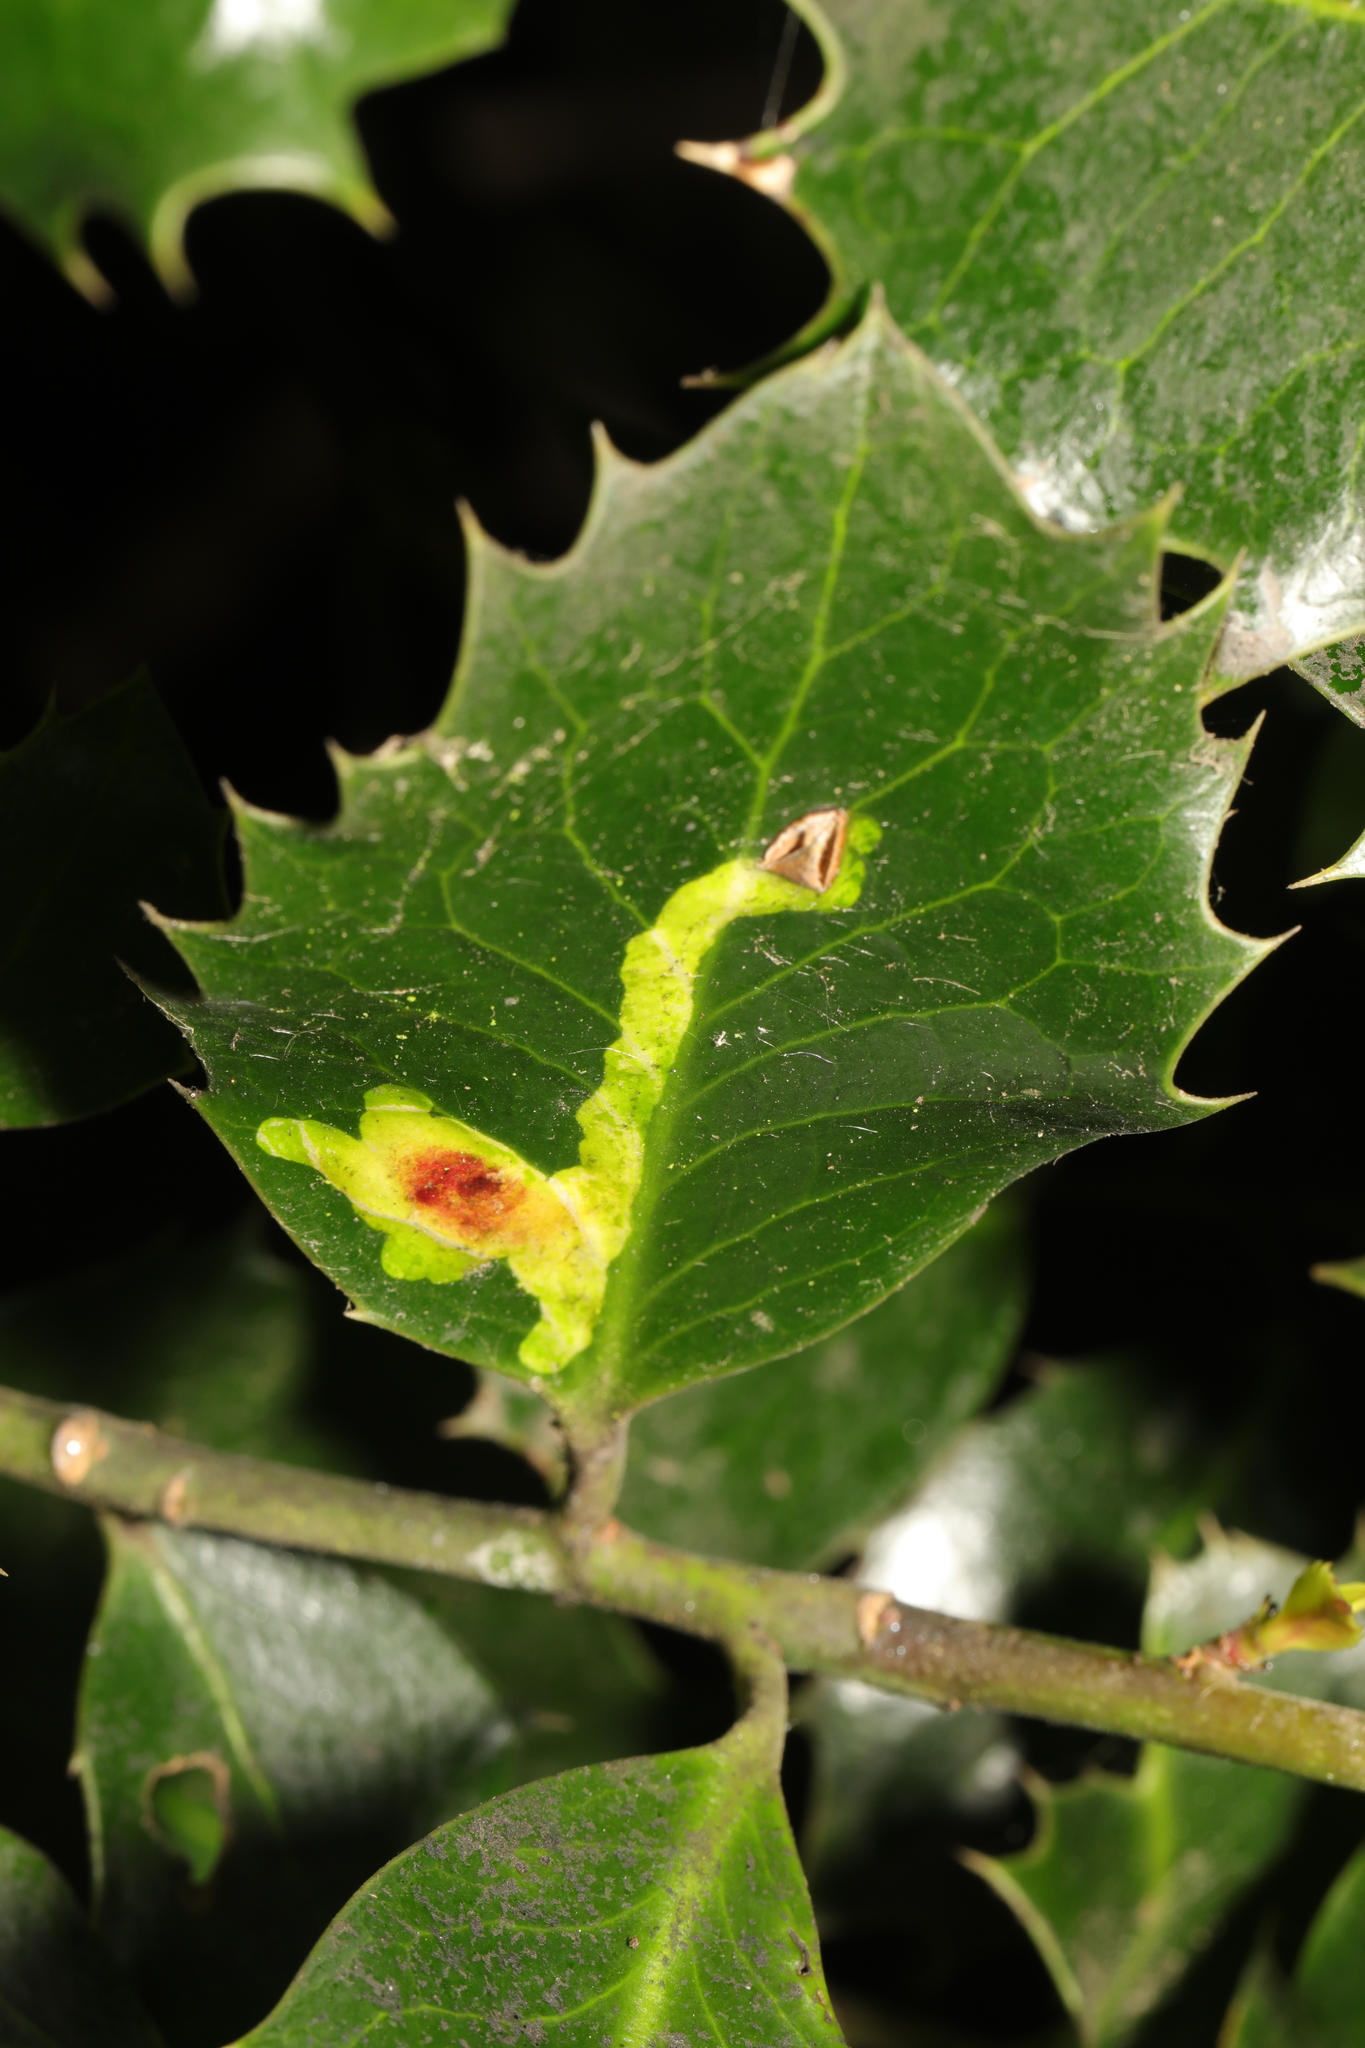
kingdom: Animalia
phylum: Arthropoda
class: Insecta
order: Diptera
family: Agromyzidae
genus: Phytomyza
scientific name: Phytomyza ilicis
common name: Holly leafminer
